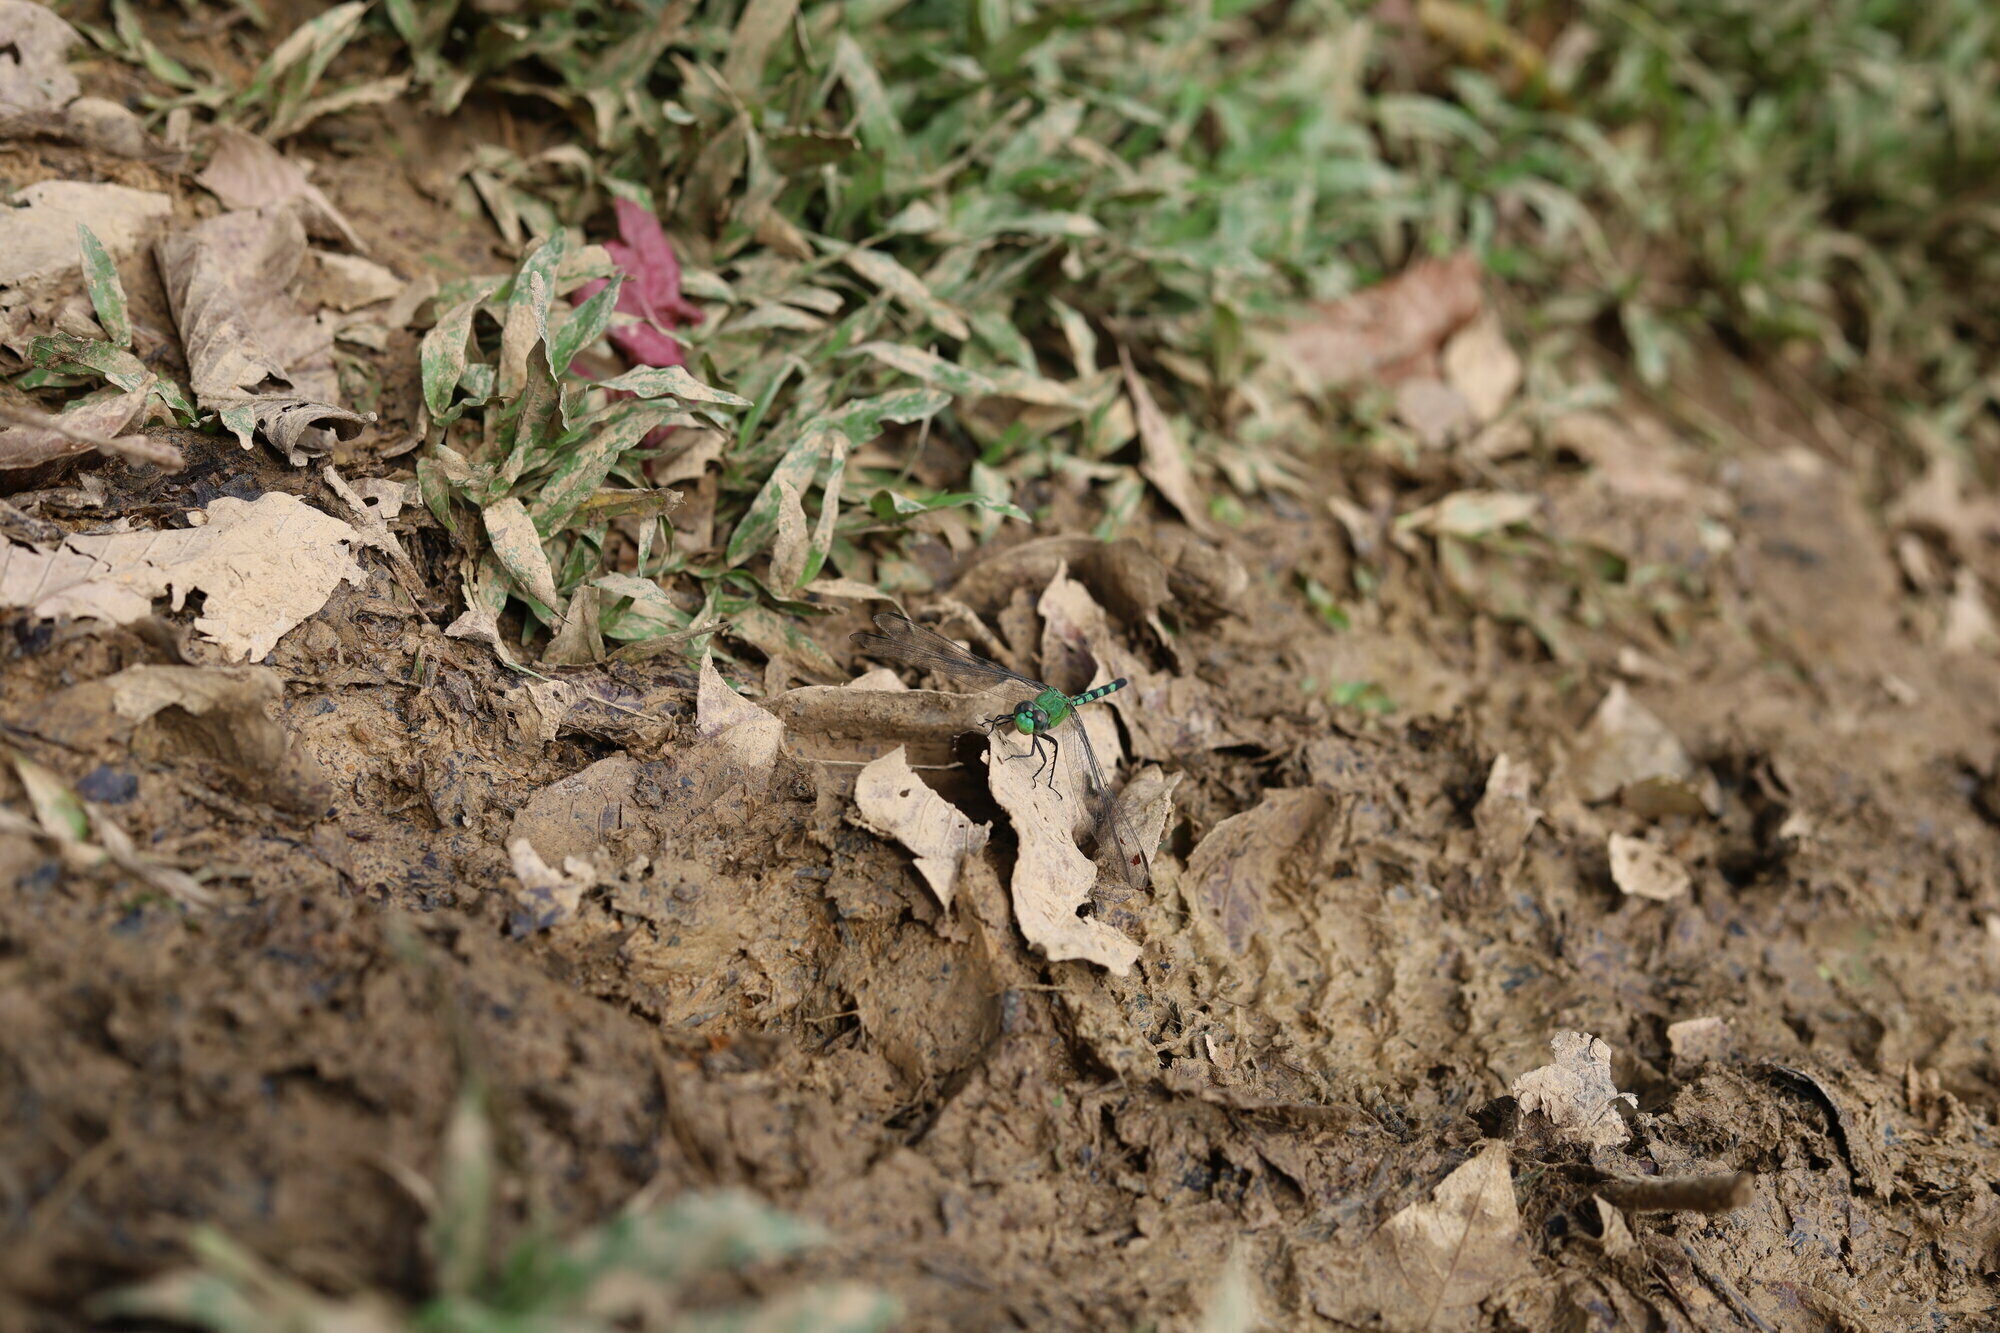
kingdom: Animalia
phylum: Arthropoda
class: Insecta
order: Odonata
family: Libellulidae
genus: Erythemis
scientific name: Erythemis vesiculosa
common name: Great pondhawk
